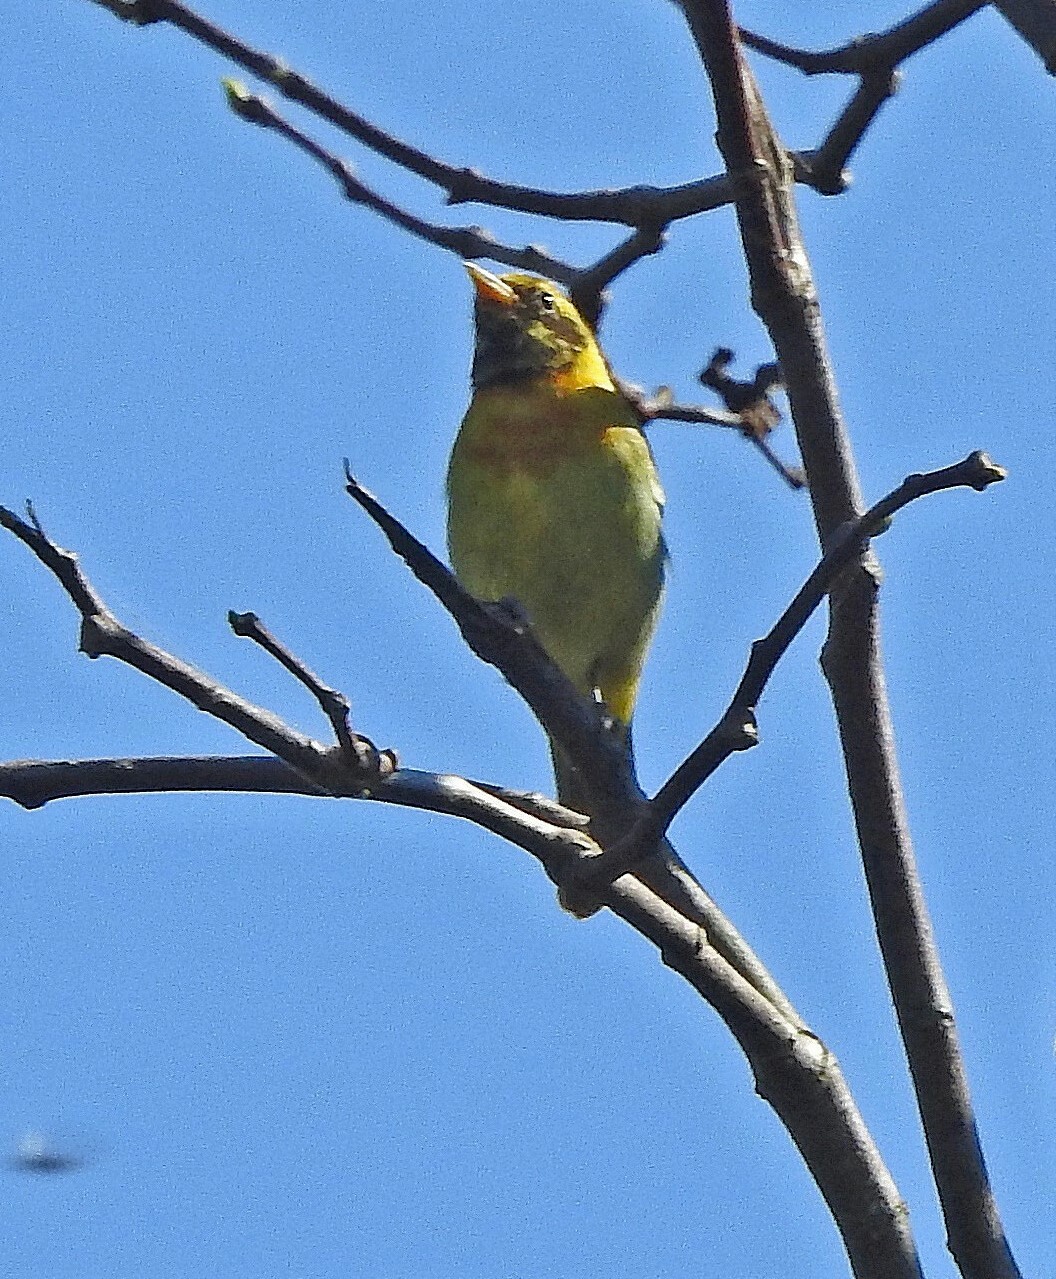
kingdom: Animalia
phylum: Chordata
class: Aves
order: Passeriformes
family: Thraupidae
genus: Hemithraupis
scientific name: Hemithraupis guira
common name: Guira tanager
